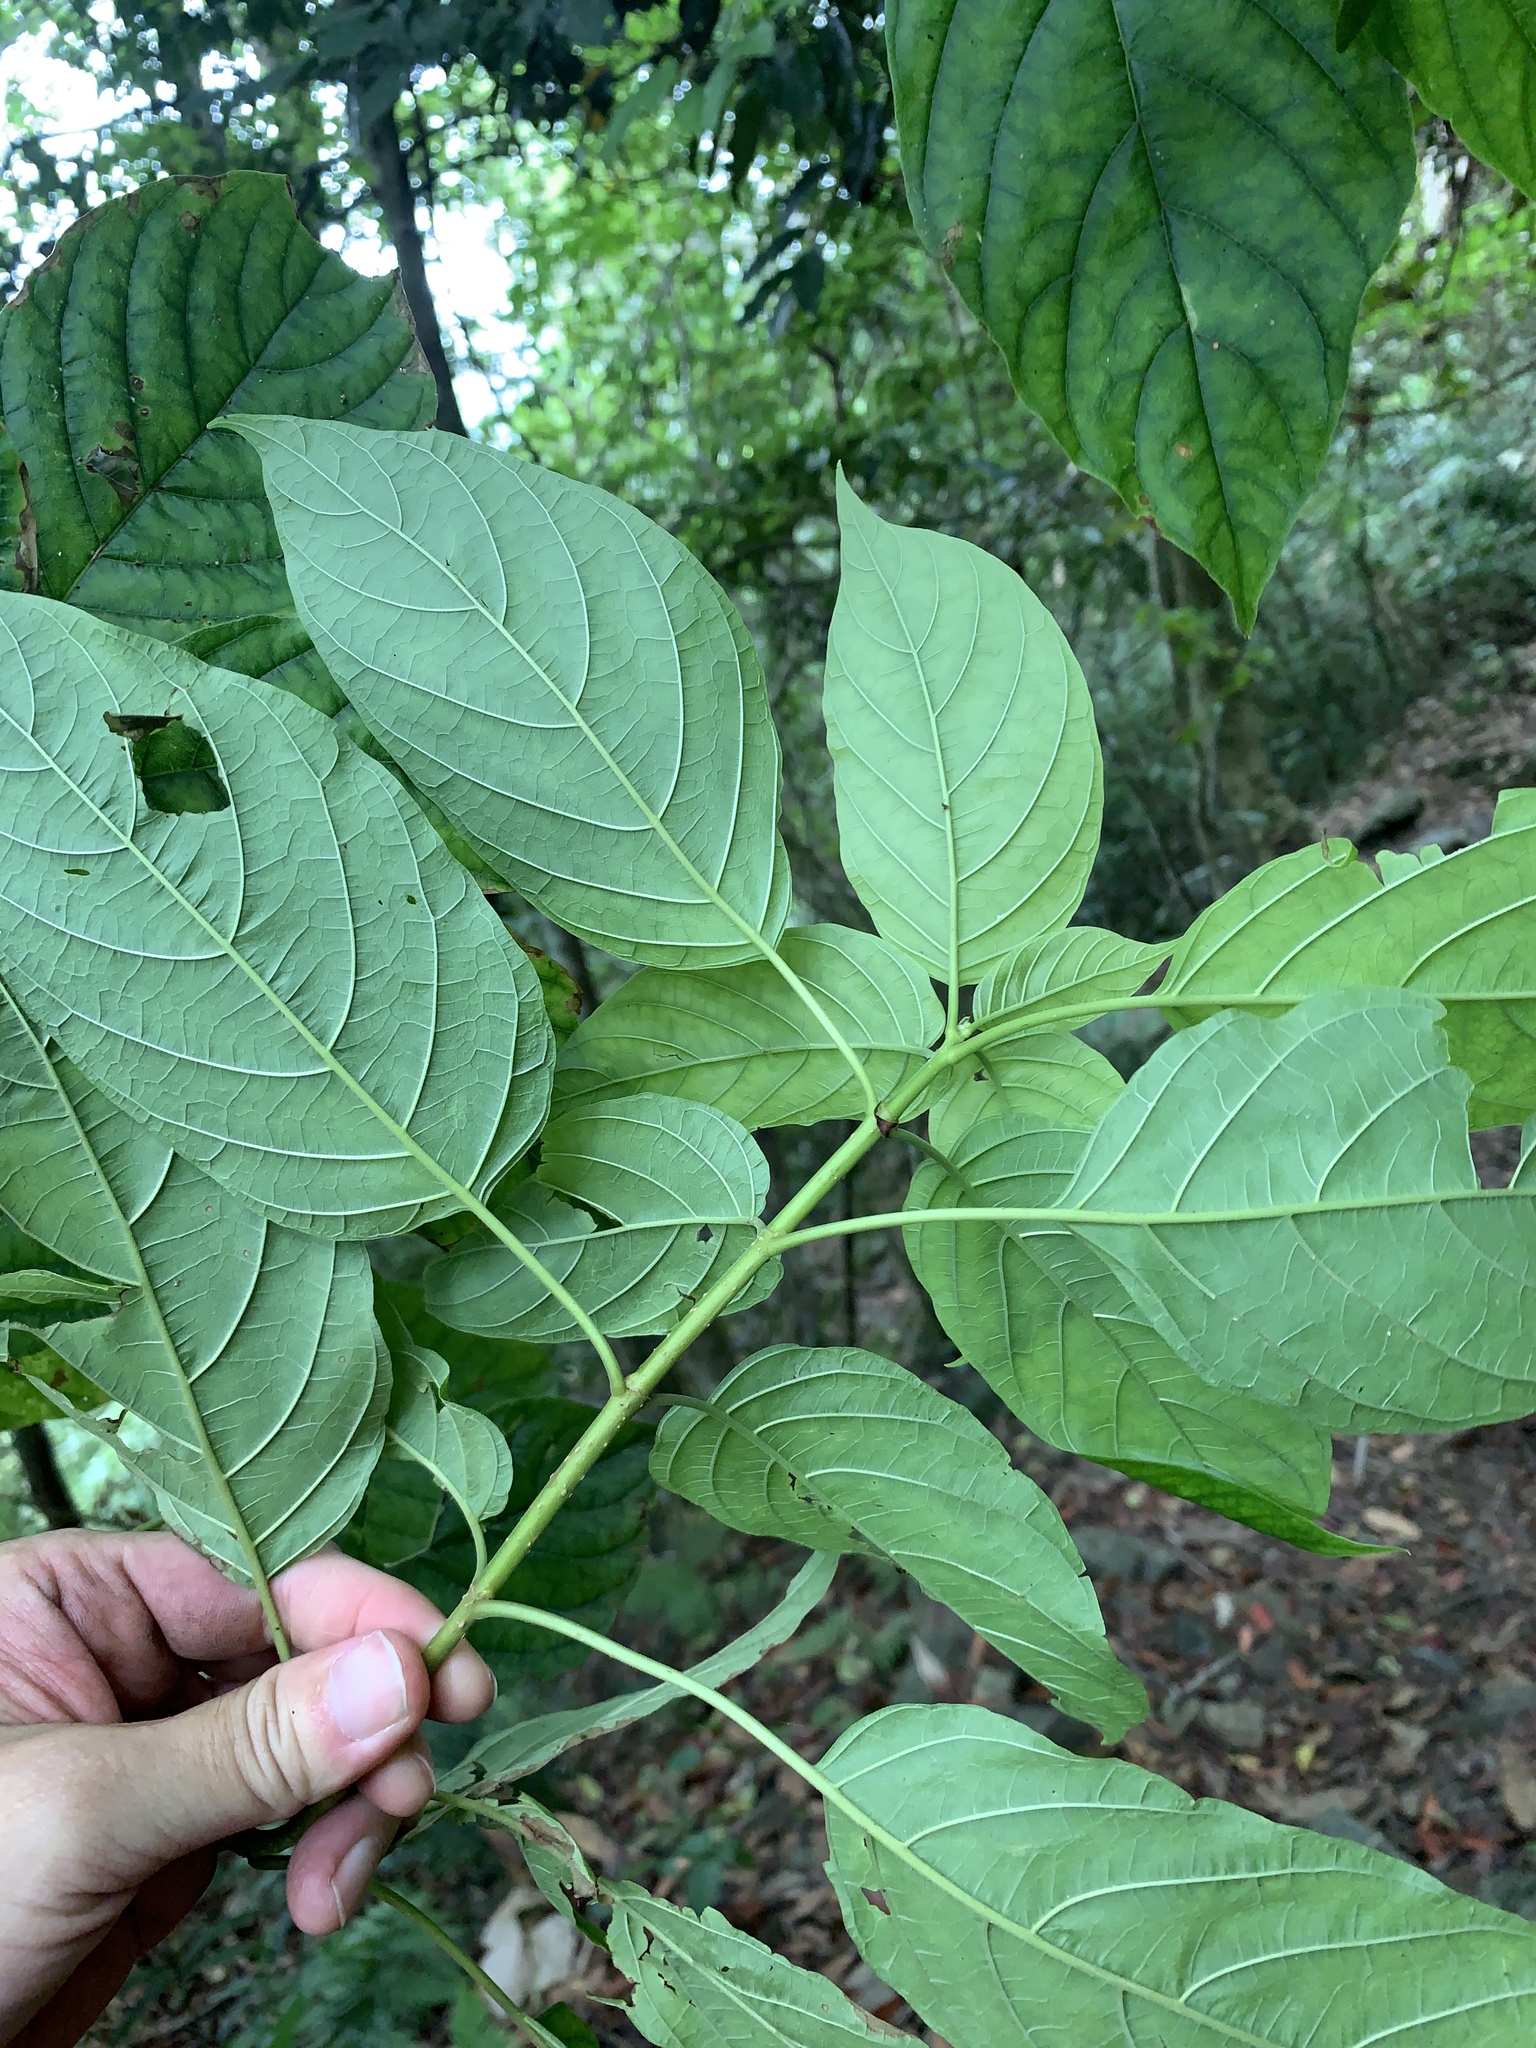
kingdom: Plantae
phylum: Tracheophyta
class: Magnoliopsida
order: Gentianales
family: Rubiaceae
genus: Adina
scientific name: Adina racemosa
